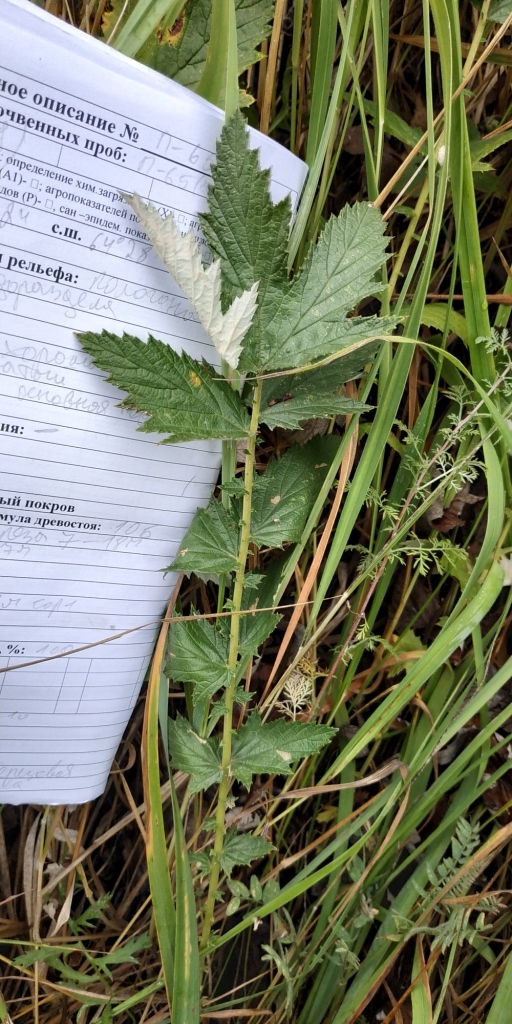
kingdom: Plantae
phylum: Tracheophyta
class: Magnoliopsida
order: Rosales
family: Rosaceae
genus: Filipendula
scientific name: Filipendula ulmaria
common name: Meadowsweet
